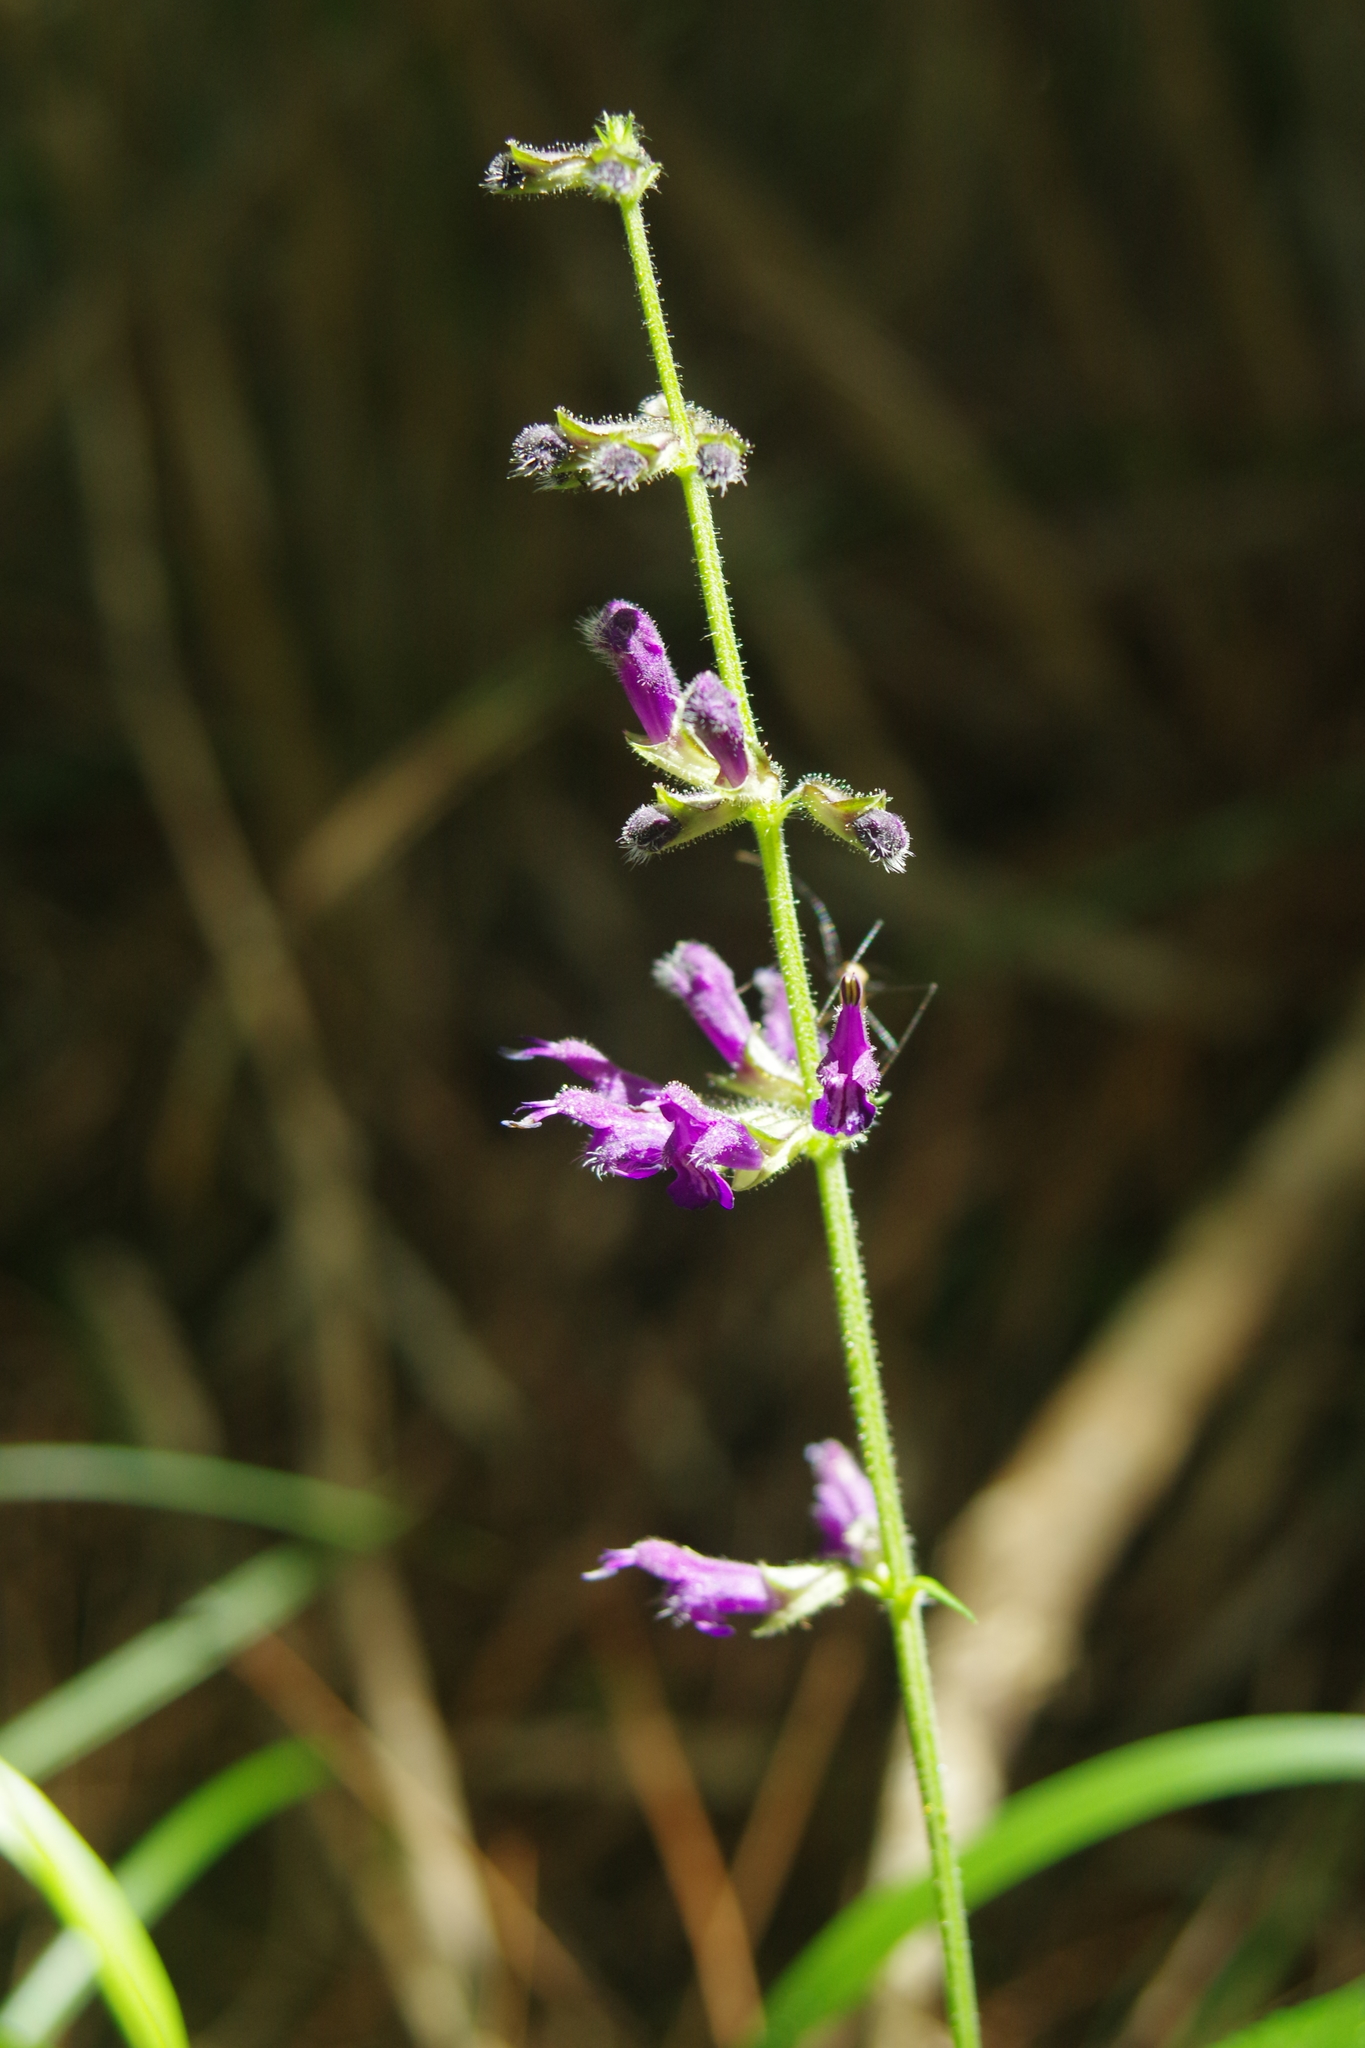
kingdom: Plantae
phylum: Tracheophyta
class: Magnoliopsida
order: Lamiales
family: Lamiaceae
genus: Salvia
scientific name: Salvia
